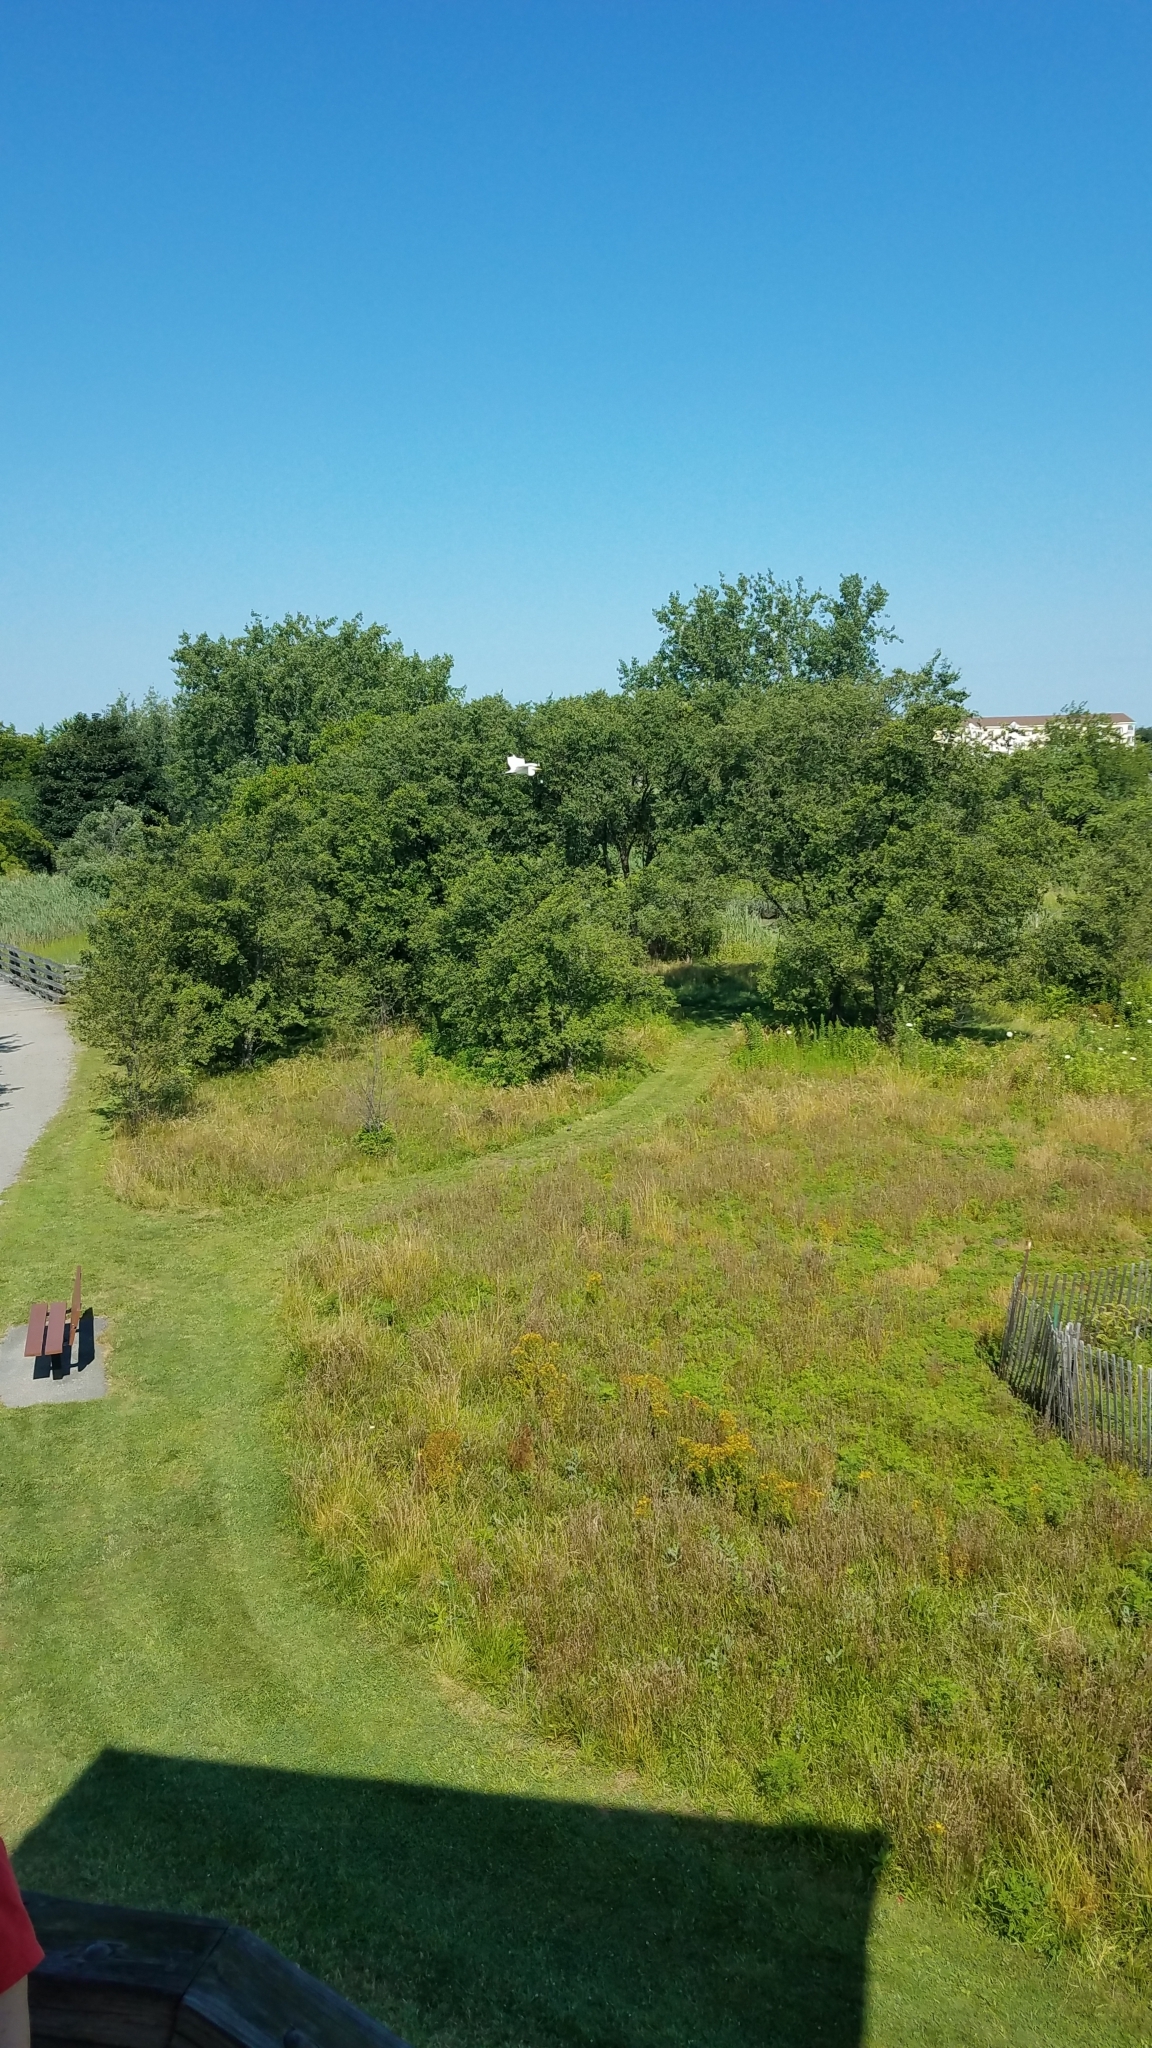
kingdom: Animalia
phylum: Chordata
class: Aves
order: Pelecaniformes
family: Ardeidae
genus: Ardea
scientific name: Ardea alba
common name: Great egret
